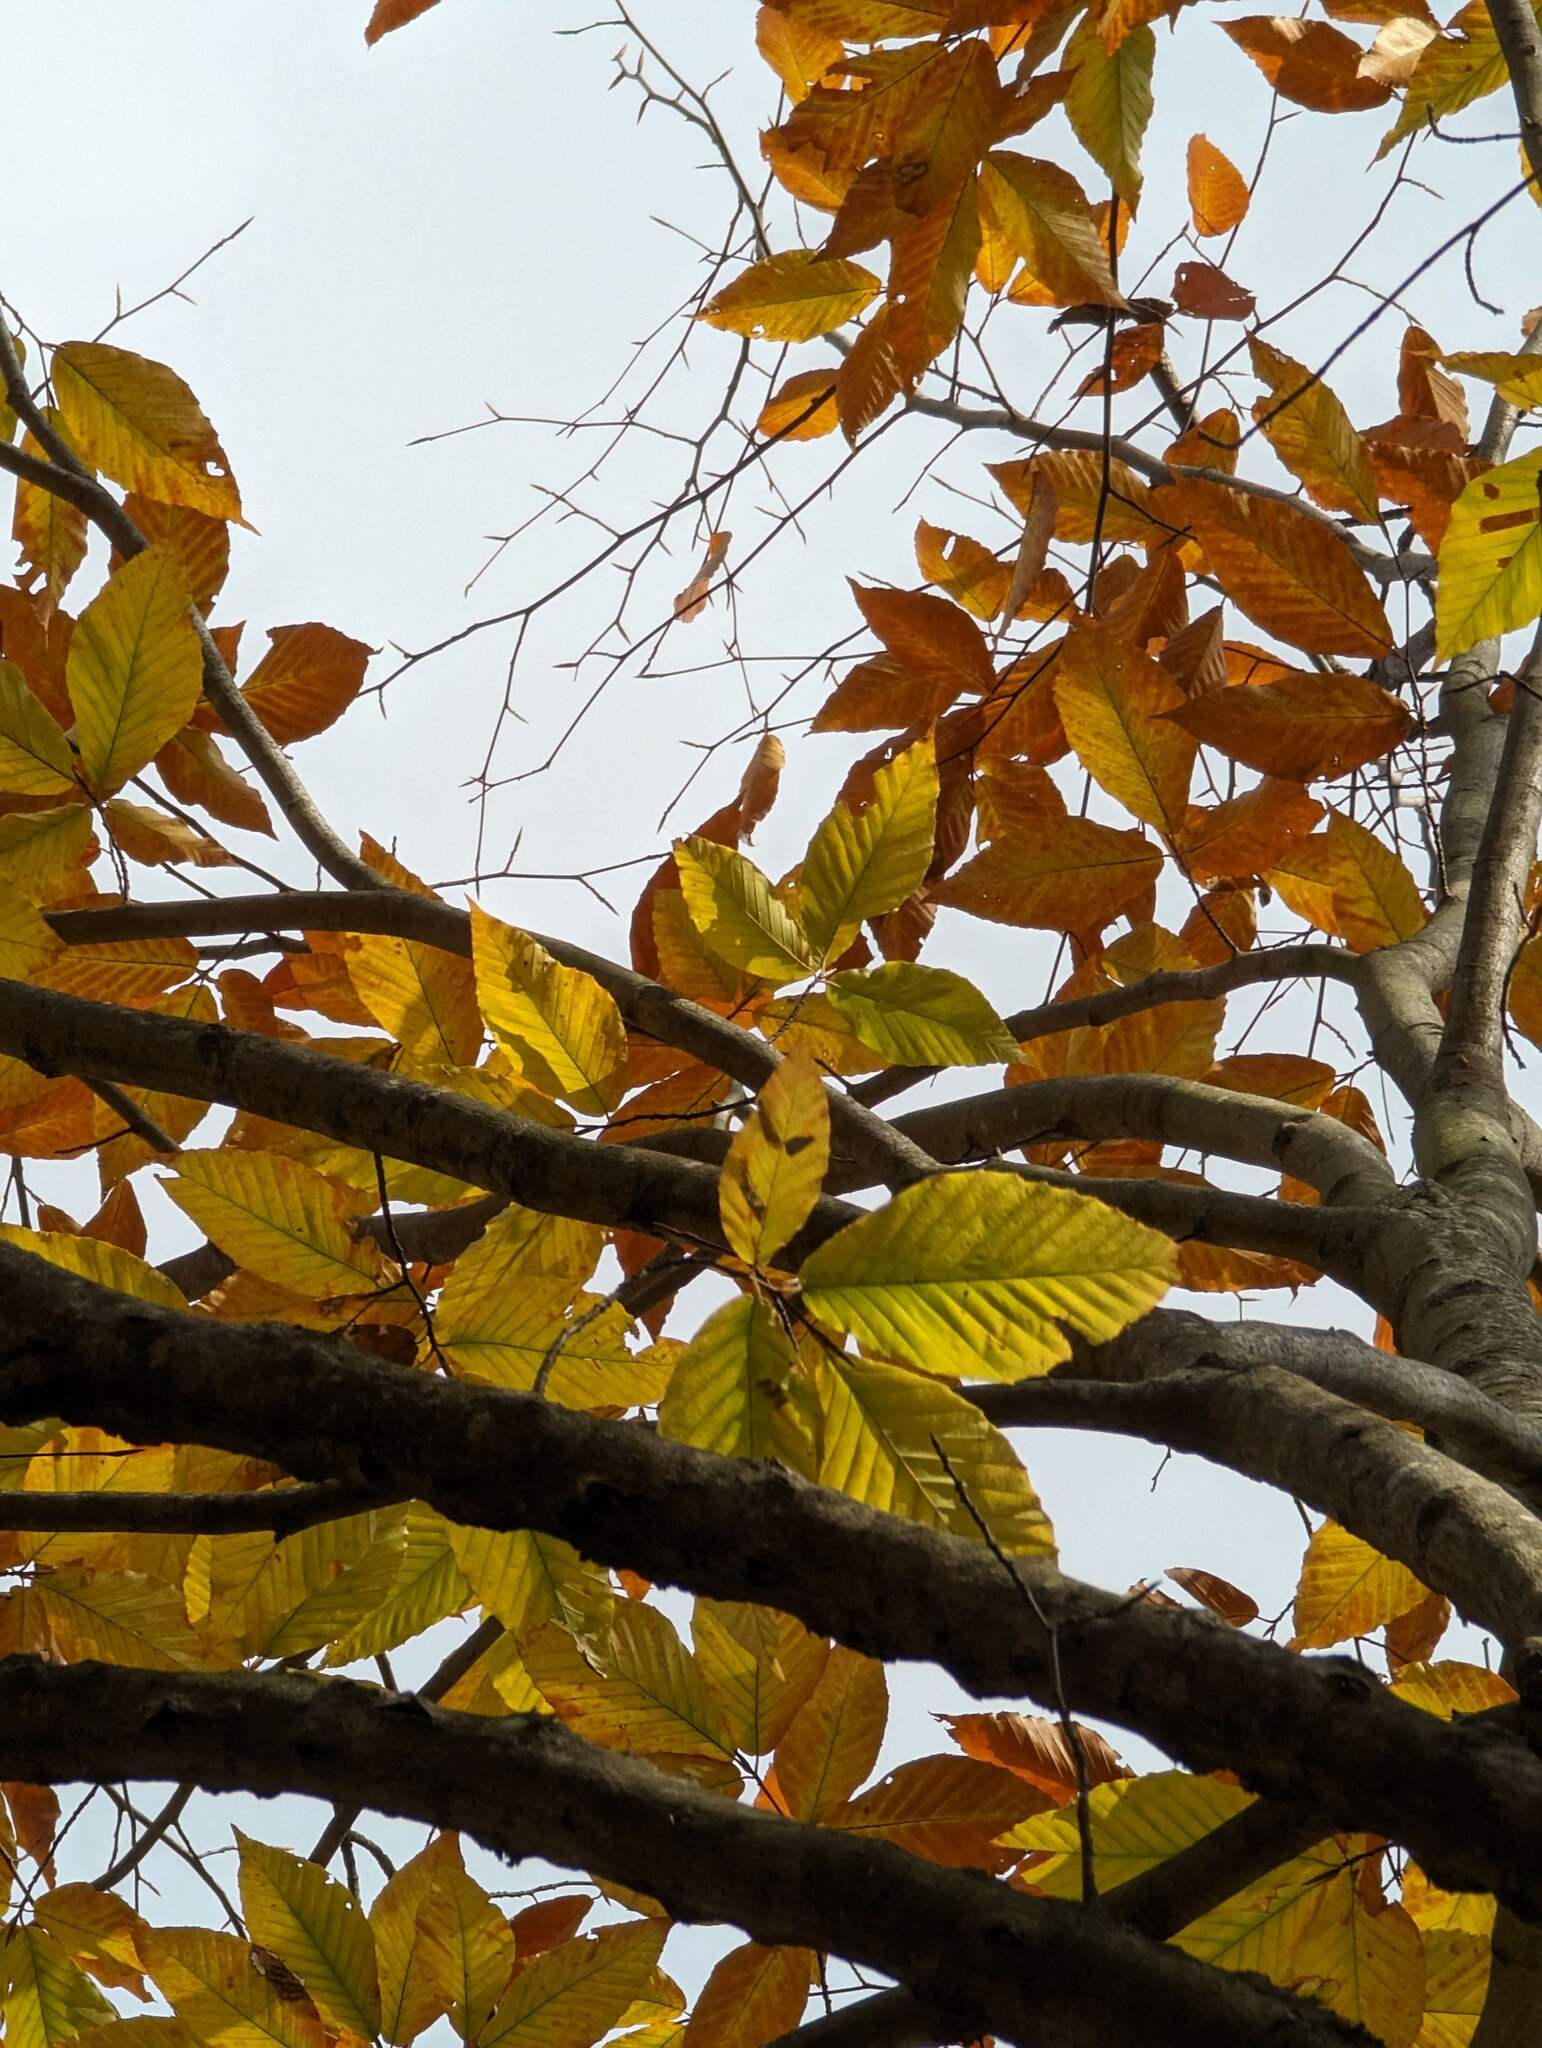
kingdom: Plantae
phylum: Tracheophyta
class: Magnoliopsida
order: Fagales
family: Fagaceae
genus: Fagus
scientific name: Fagus grandifolia
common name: American beech
